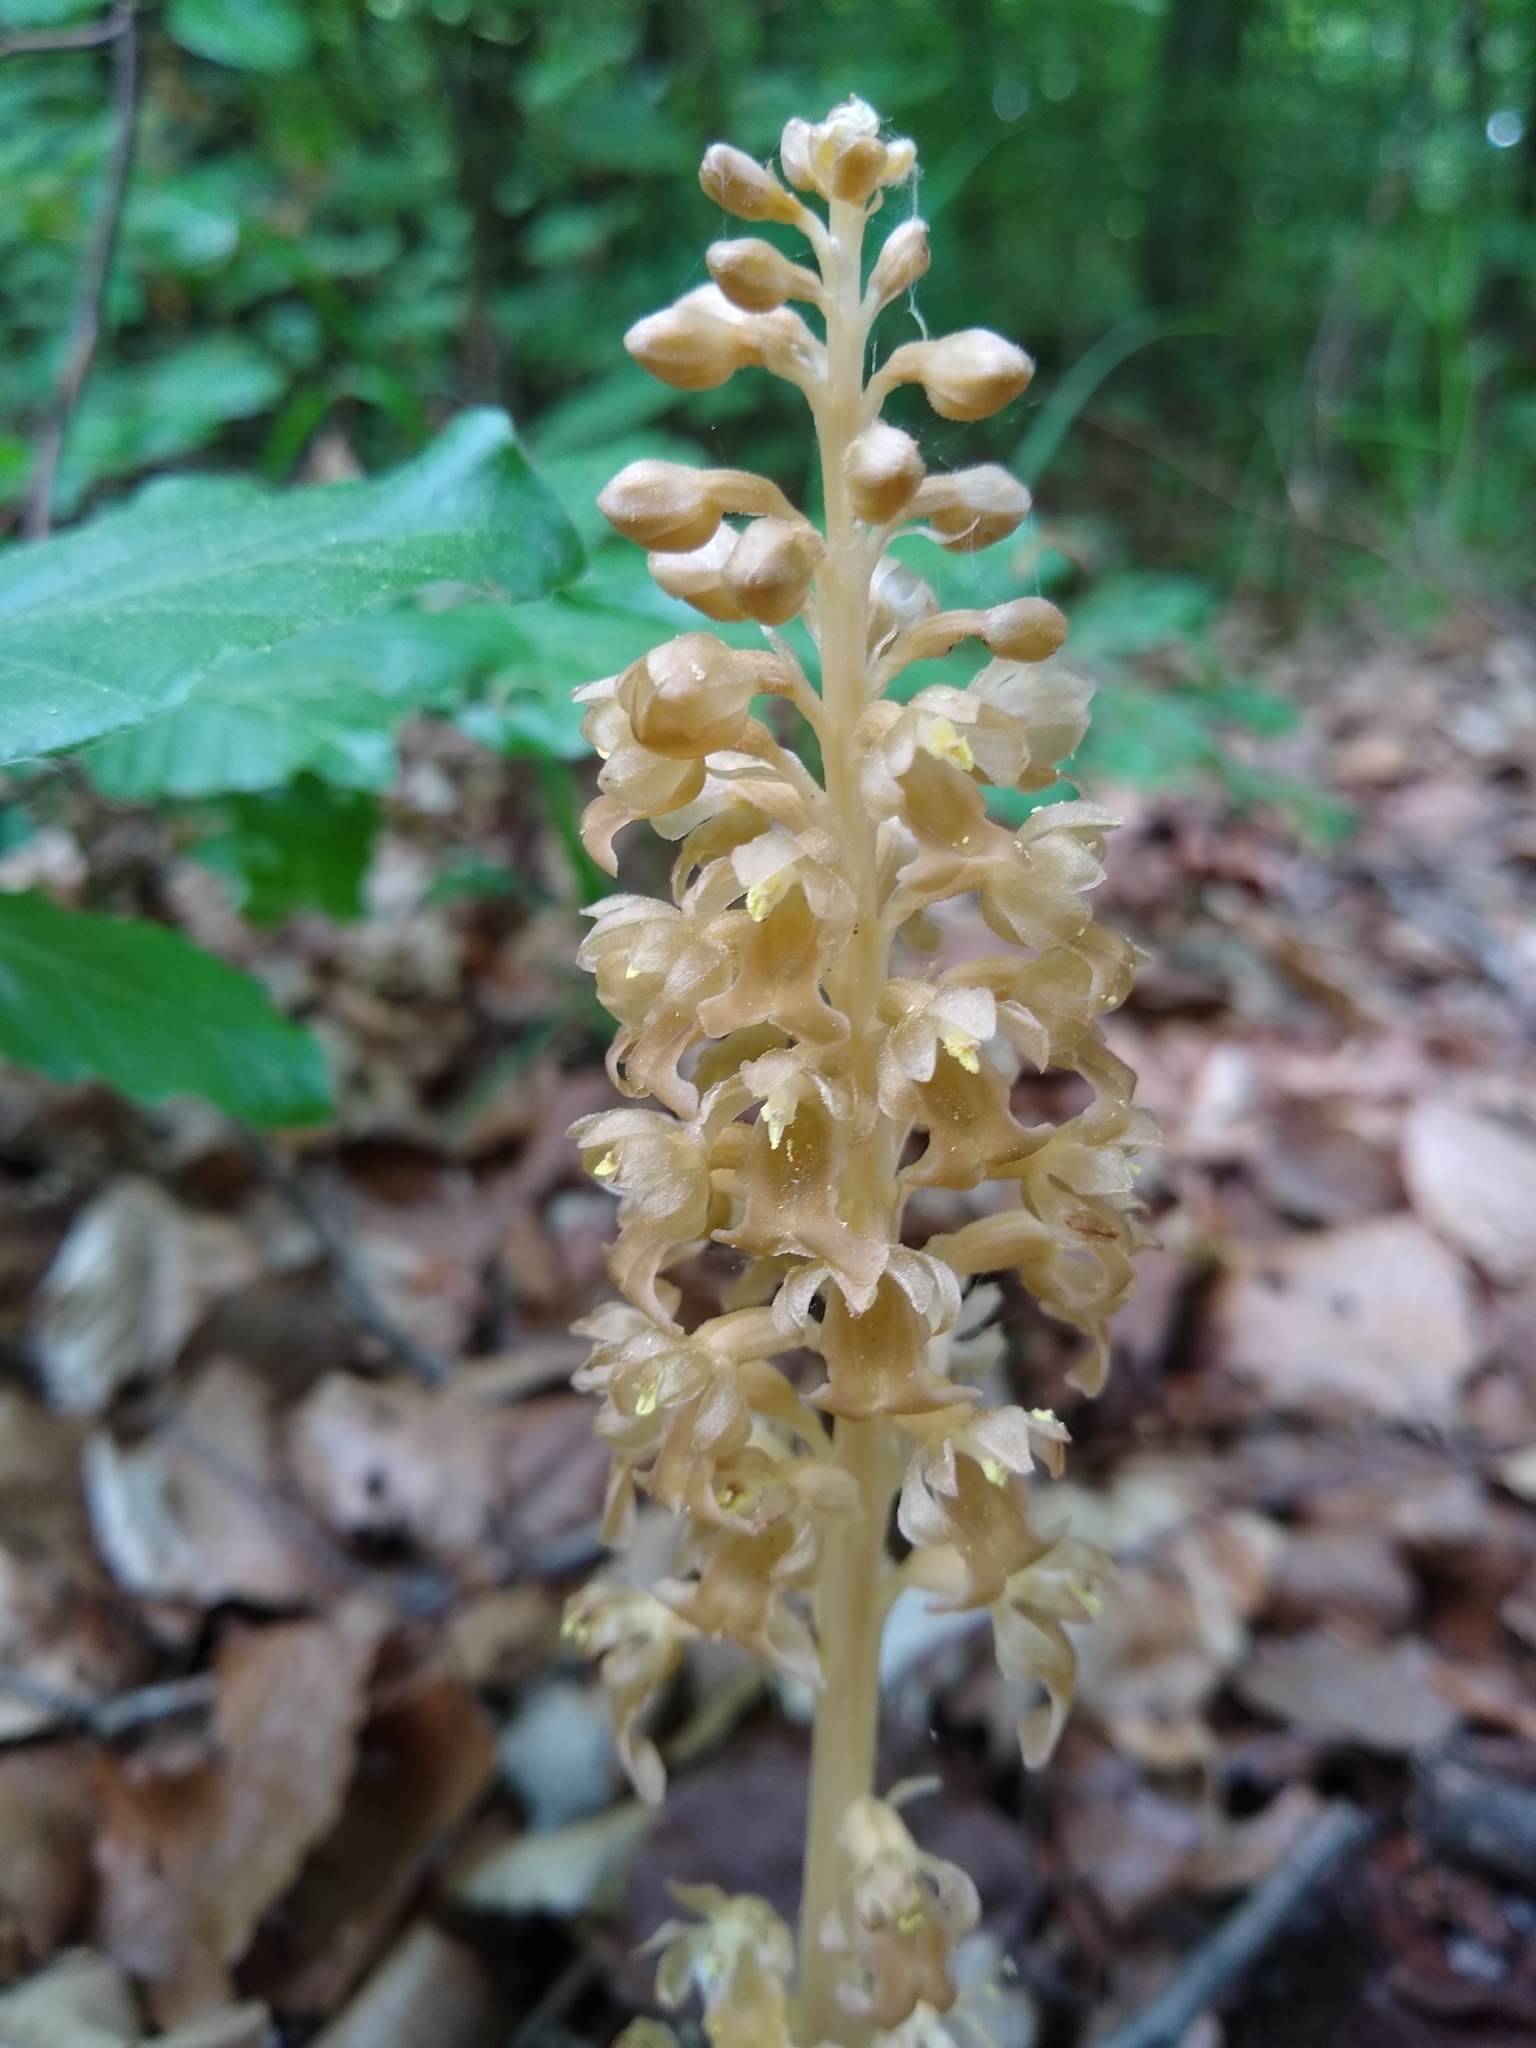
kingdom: Plantae
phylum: Tracheophyta
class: Liliopsida
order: Asparagales
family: Orchidaceae
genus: Neottia
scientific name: Neottia nidus-avis
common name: Bird's-nest orchid
